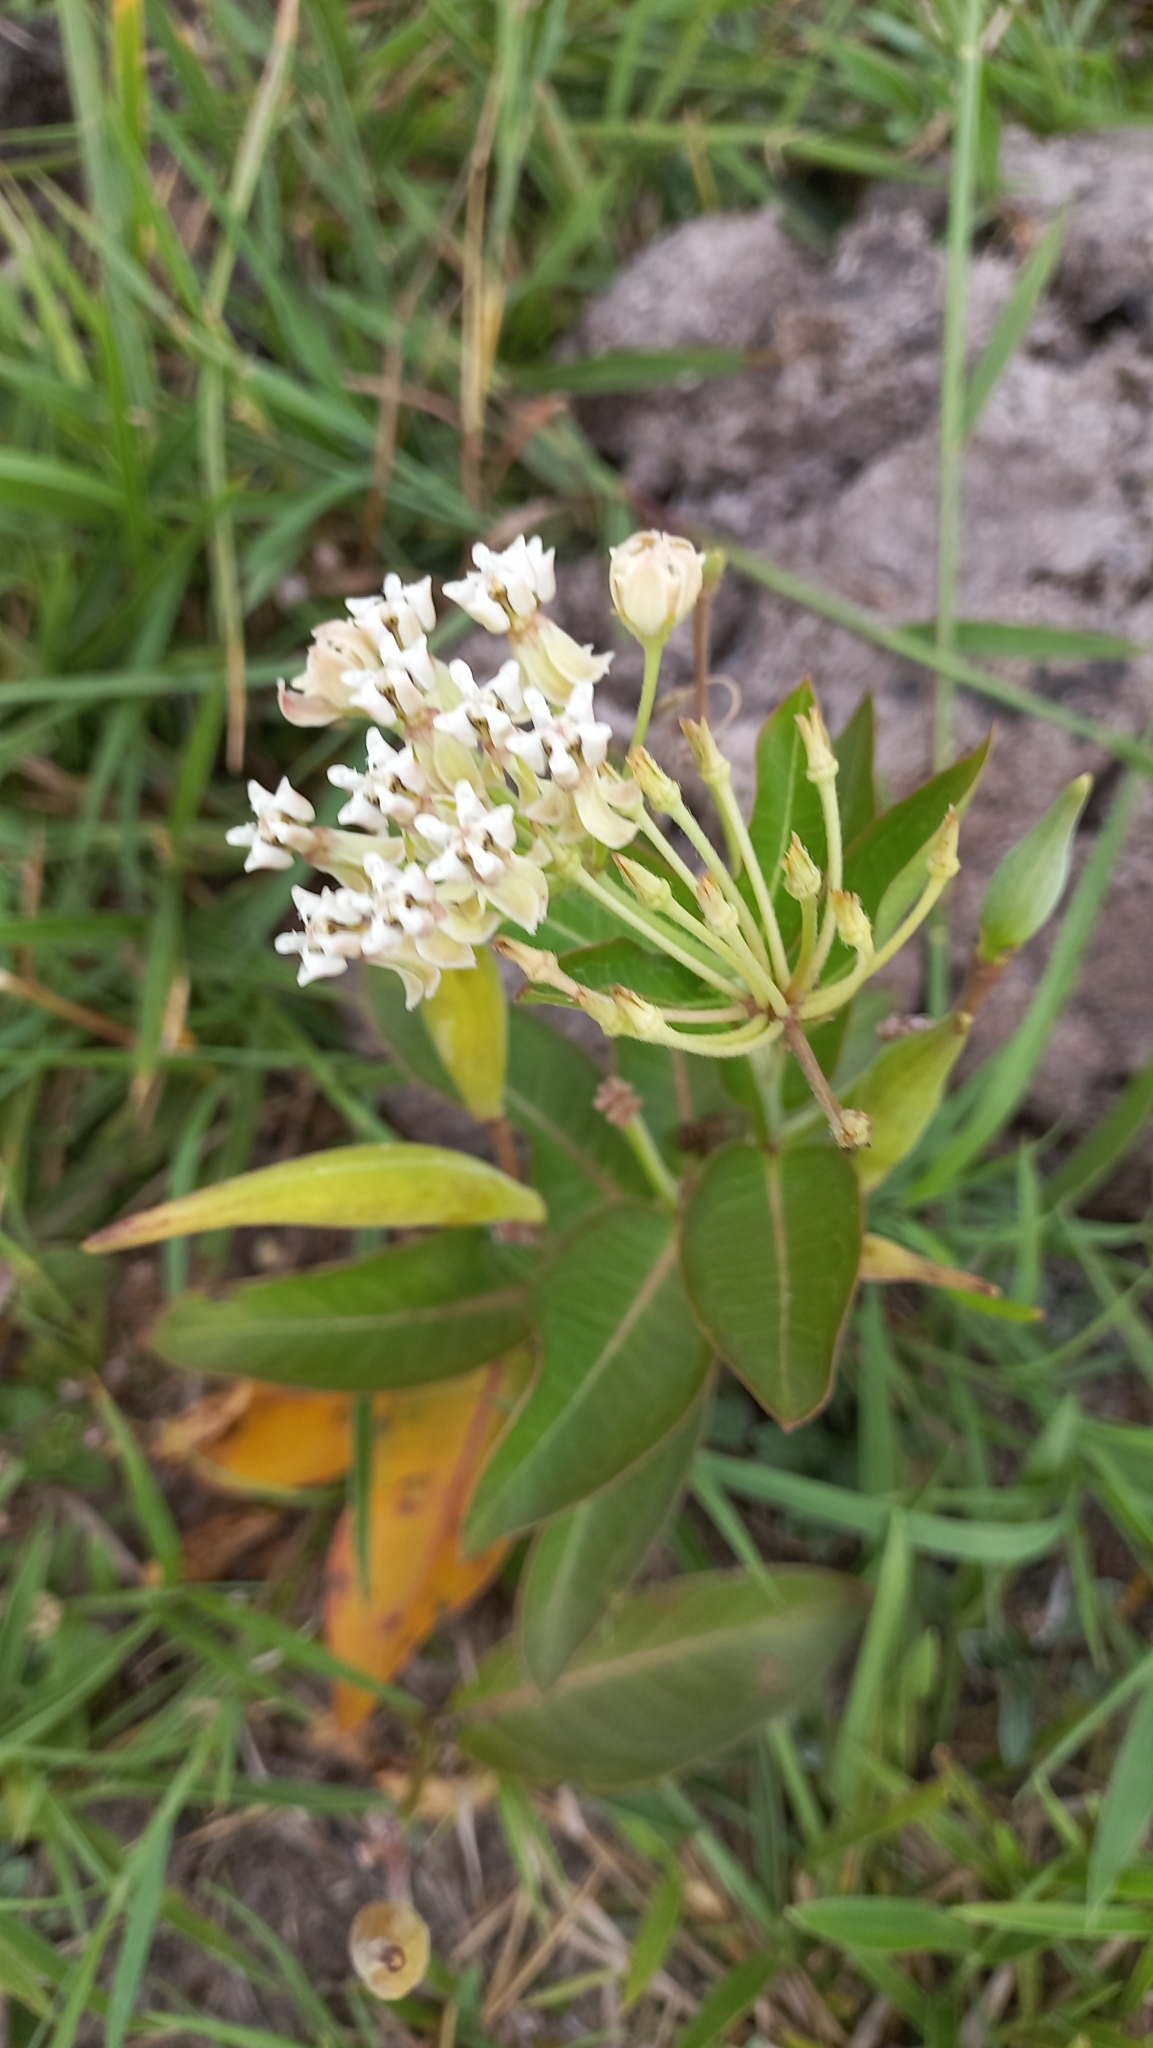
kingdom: Plantae
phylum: Tracheophyta
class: Magnoliopsida
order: Gentianales
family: Apocynaceae
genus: Asclepias
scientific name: Asclepias mellodora
